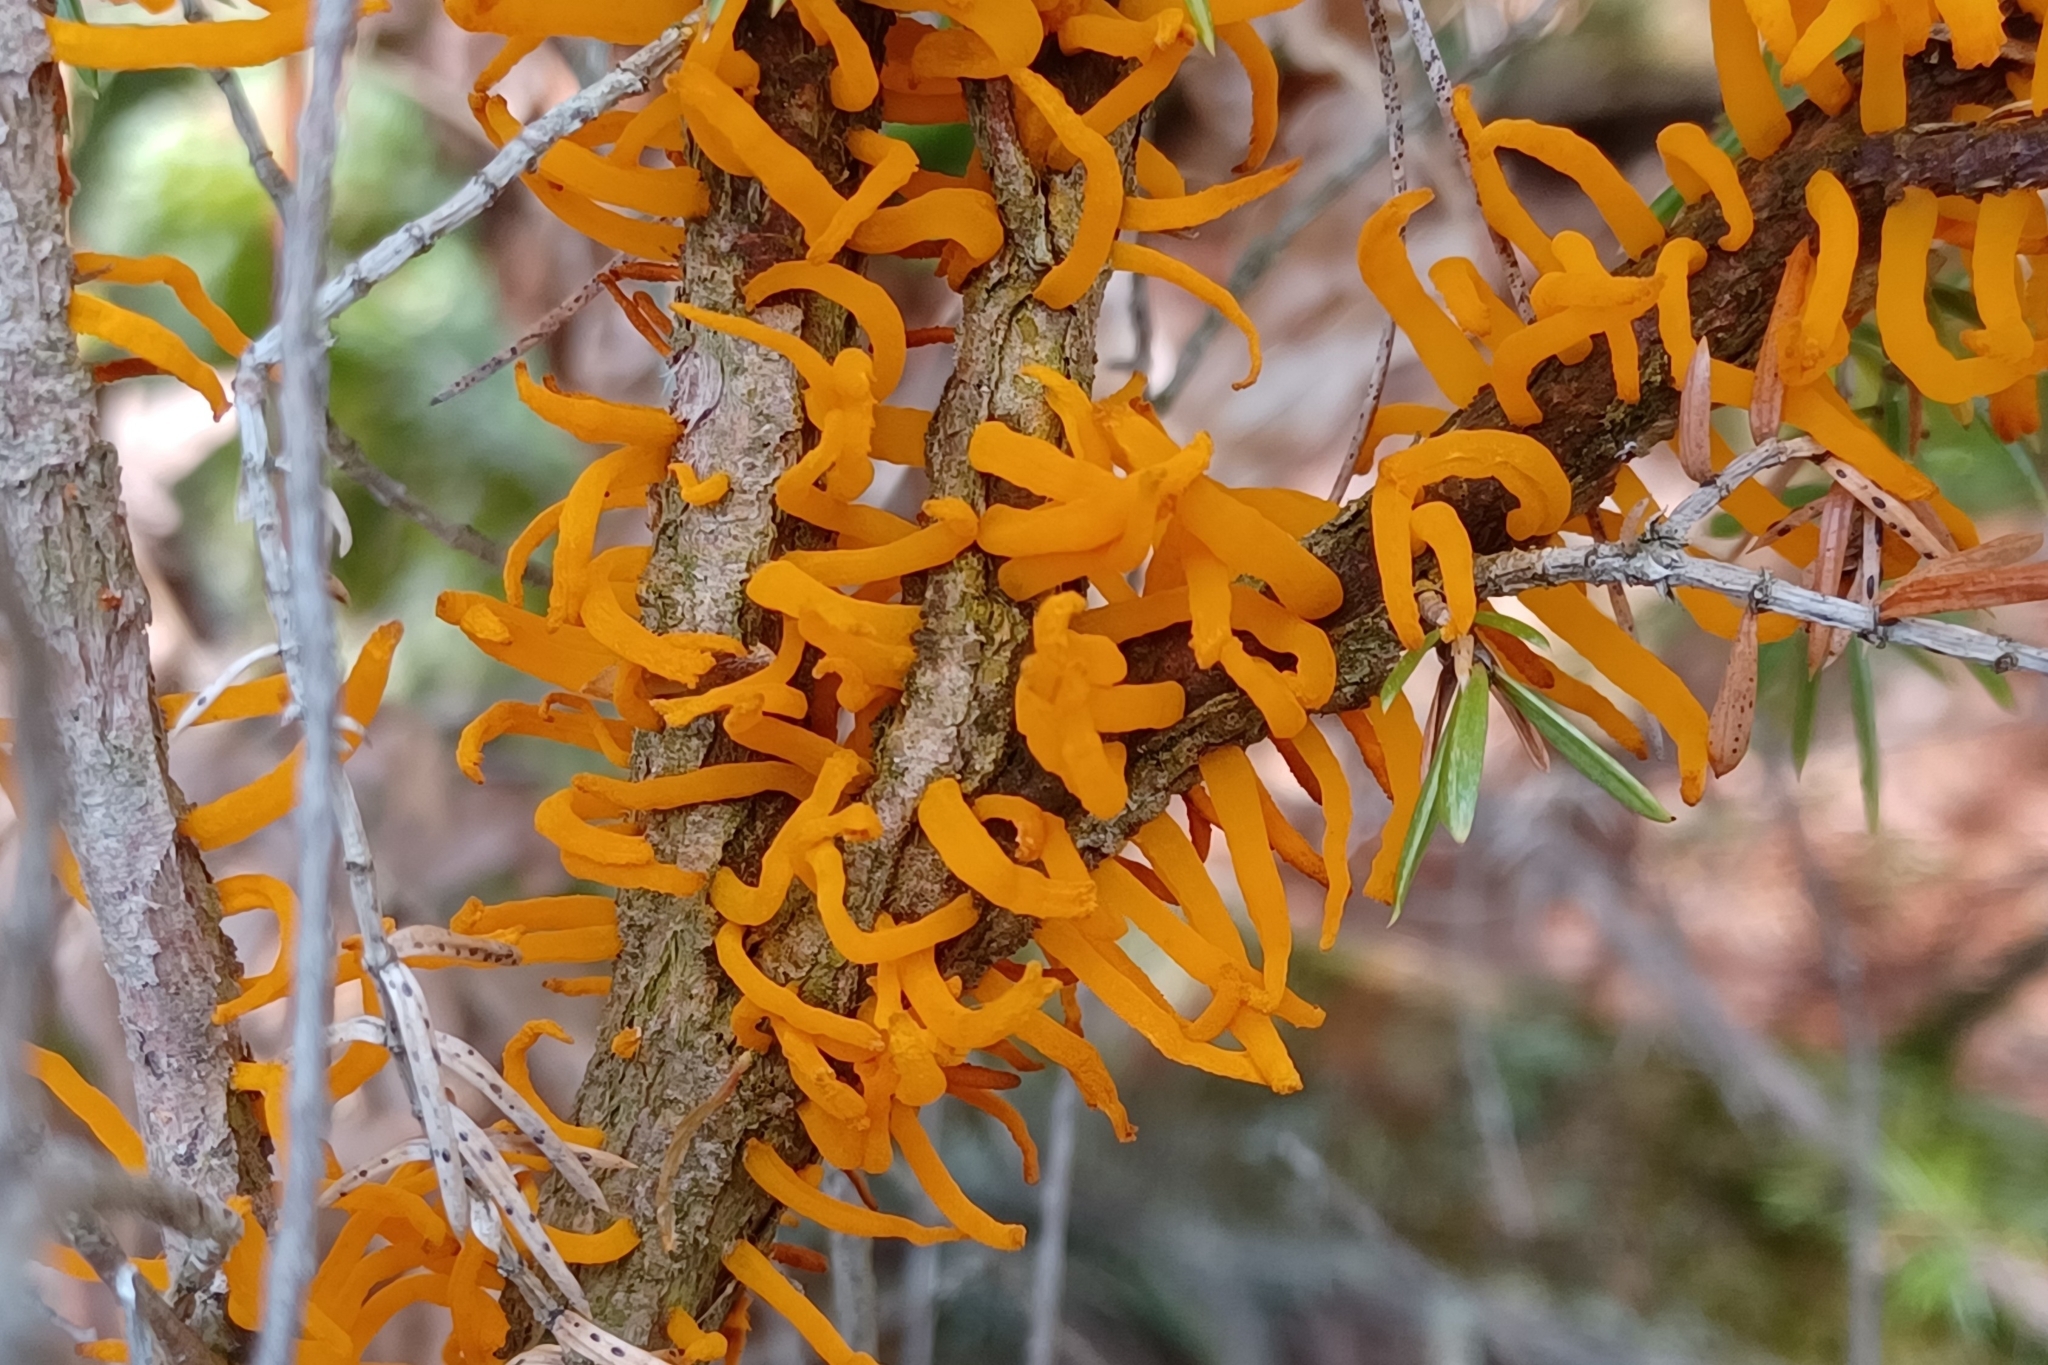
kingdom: Fungi
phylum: Basidiomycota
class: Pucciniomycetes
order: Pucciniales
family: Gymnosporangiaceae
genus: Gymnosporangium
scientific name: Gymnosporangium clavariiforme
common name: Tongues of fire
